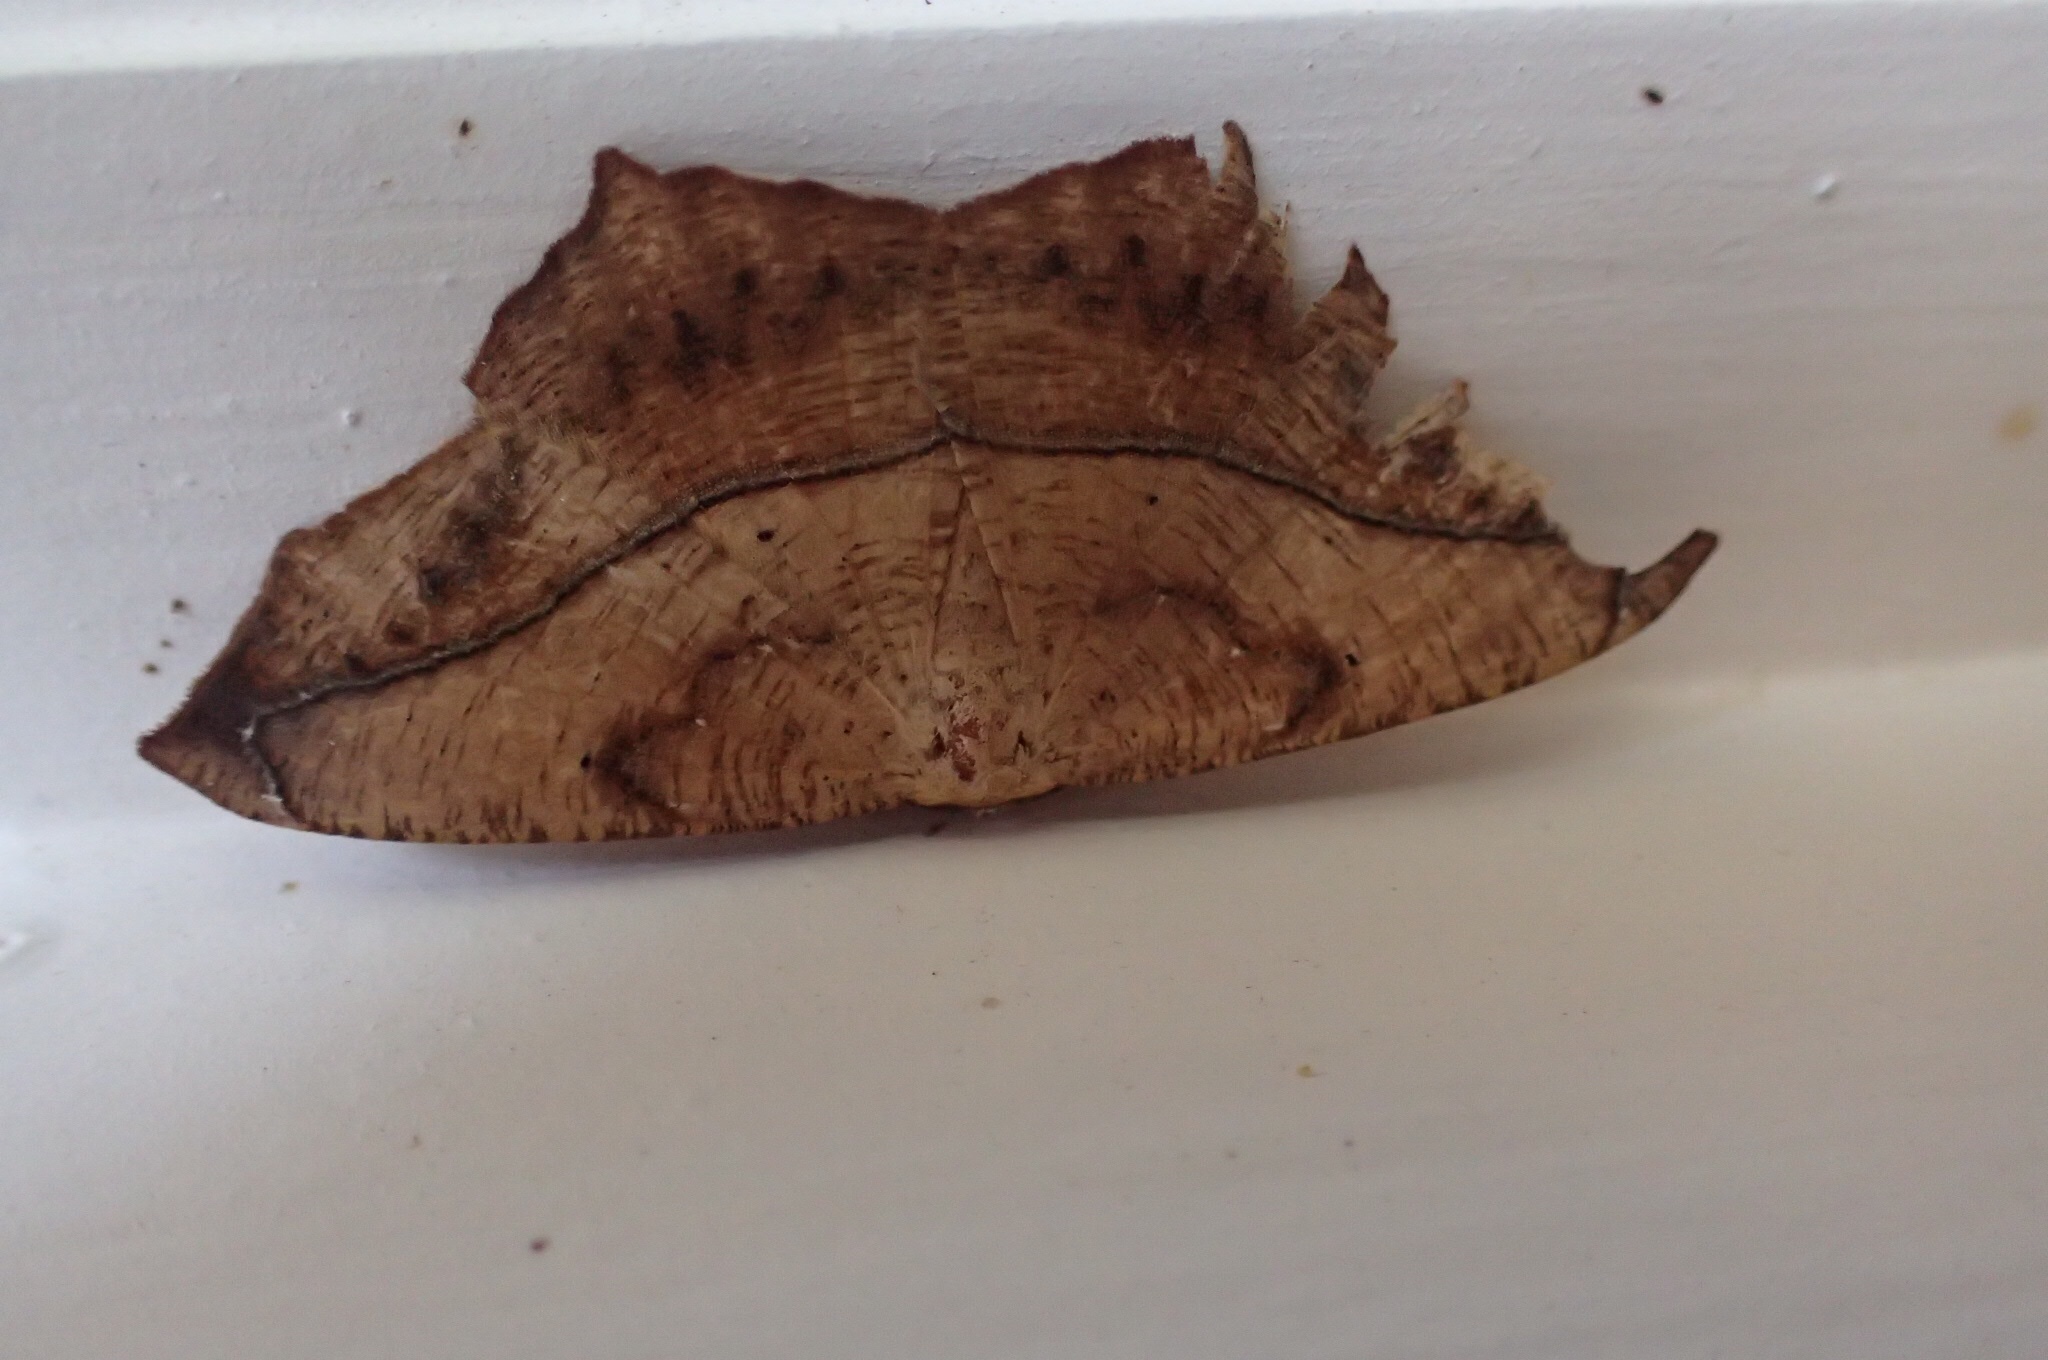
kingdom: Animalia
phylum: Arthropoda
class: Insecta
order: Lepidoptera
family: Geometridae
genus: Prochoerodes
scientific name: Prochoerodes lineola
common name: Large maple spanworm
